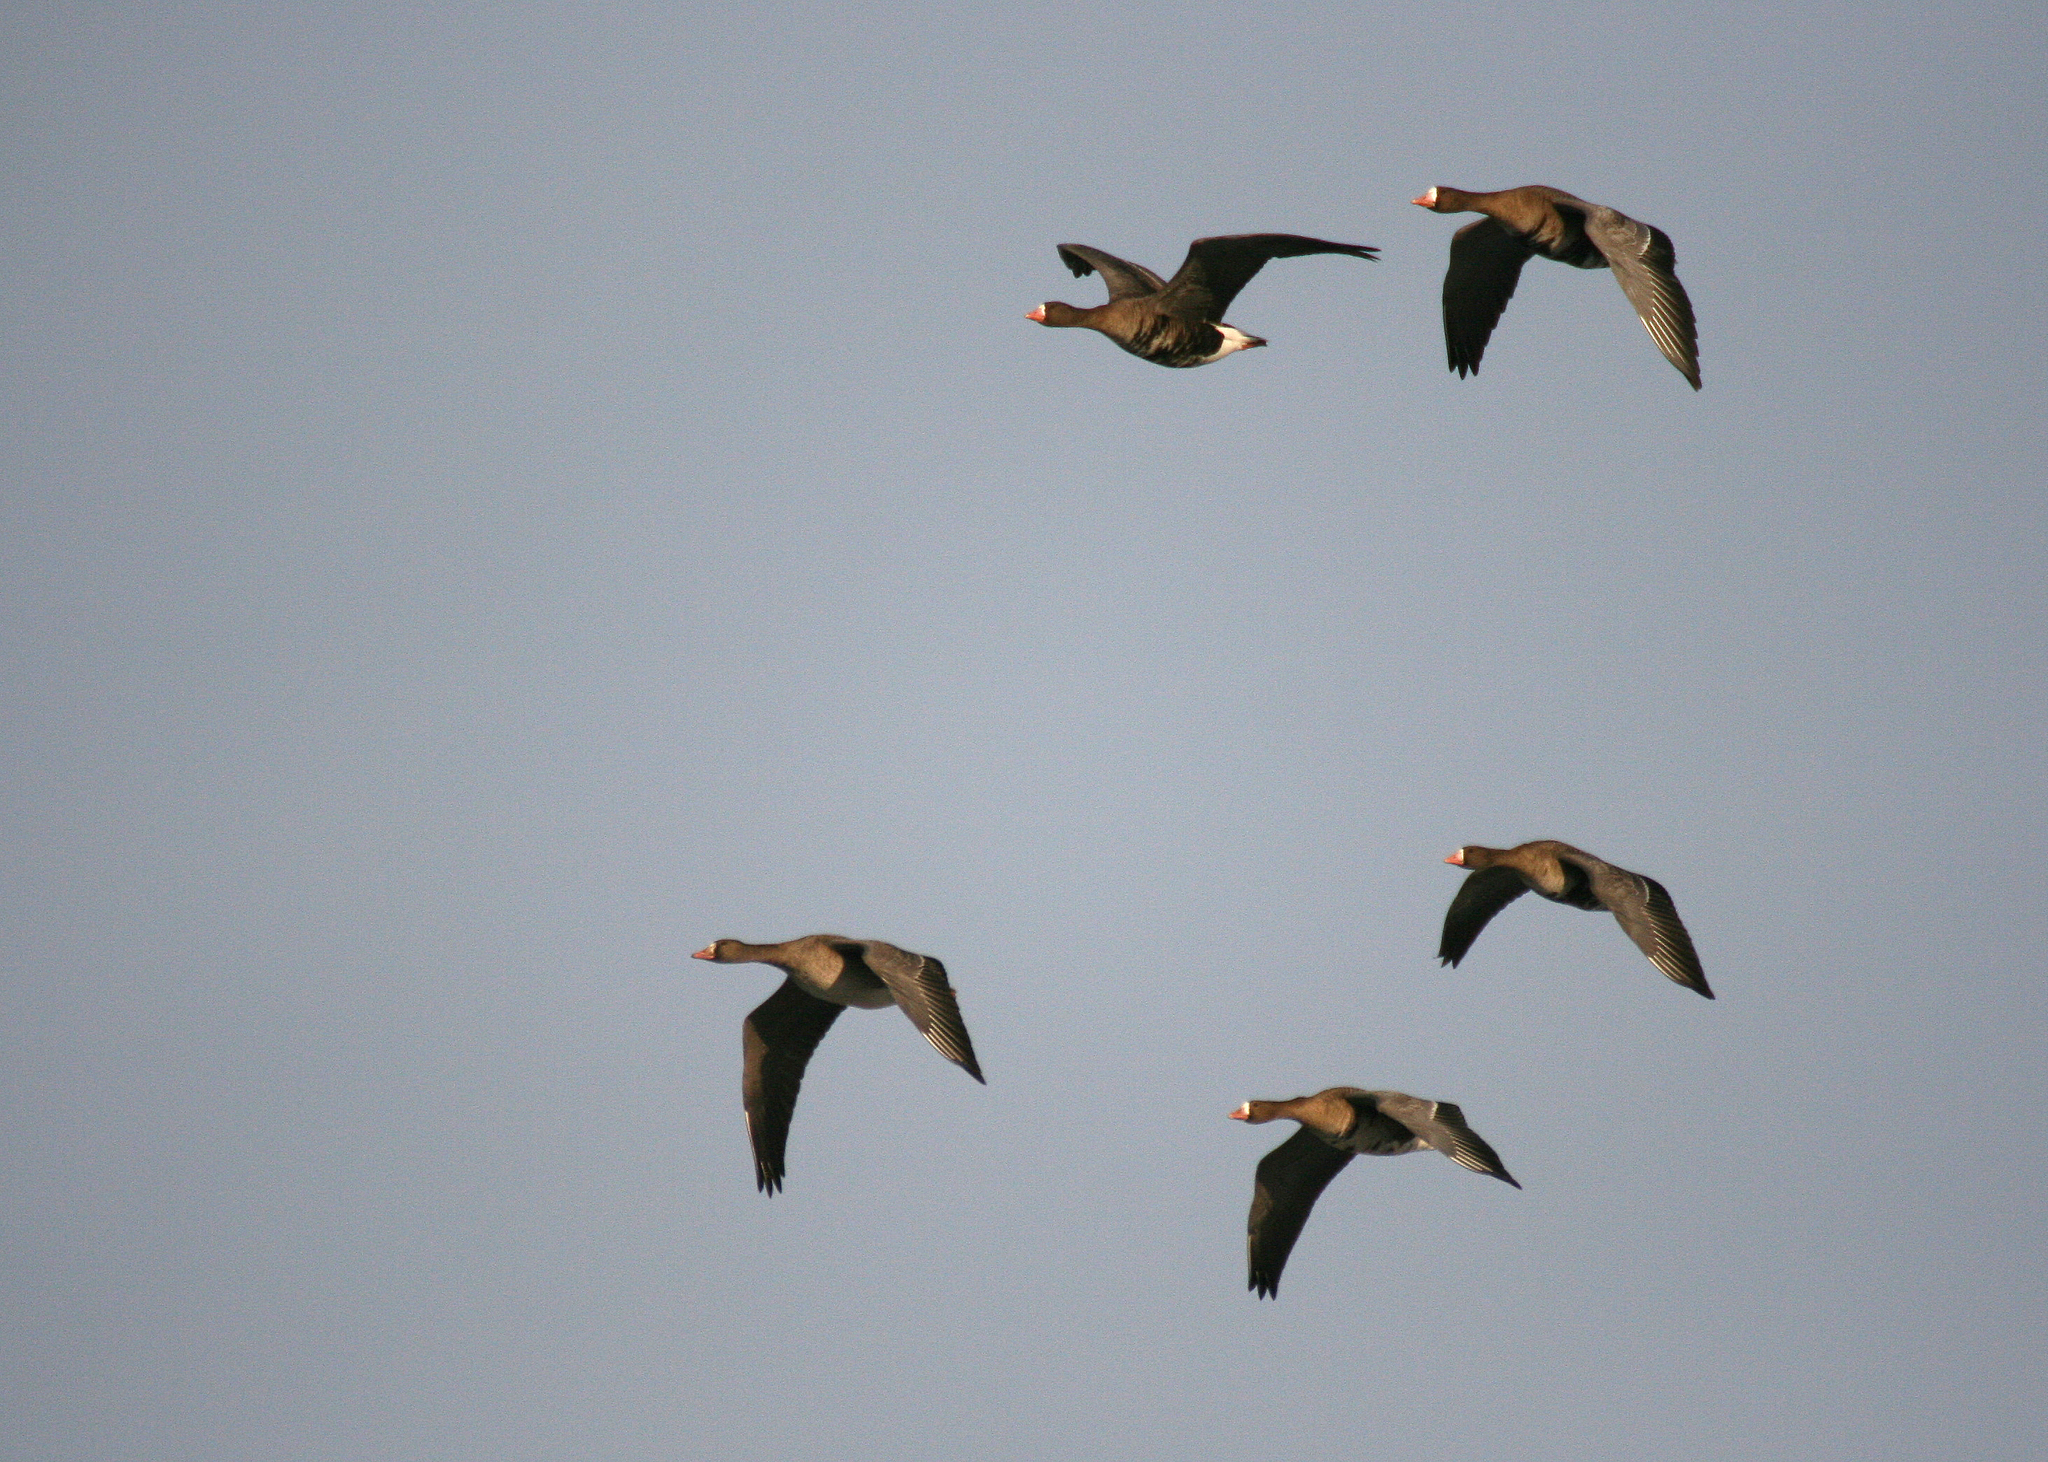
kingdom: Animalia
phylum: Chordata
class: Aves
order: Anseriformes
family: Anatidae
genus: Anser
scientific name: Anser albifrons
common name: Greater white-fronted goose
